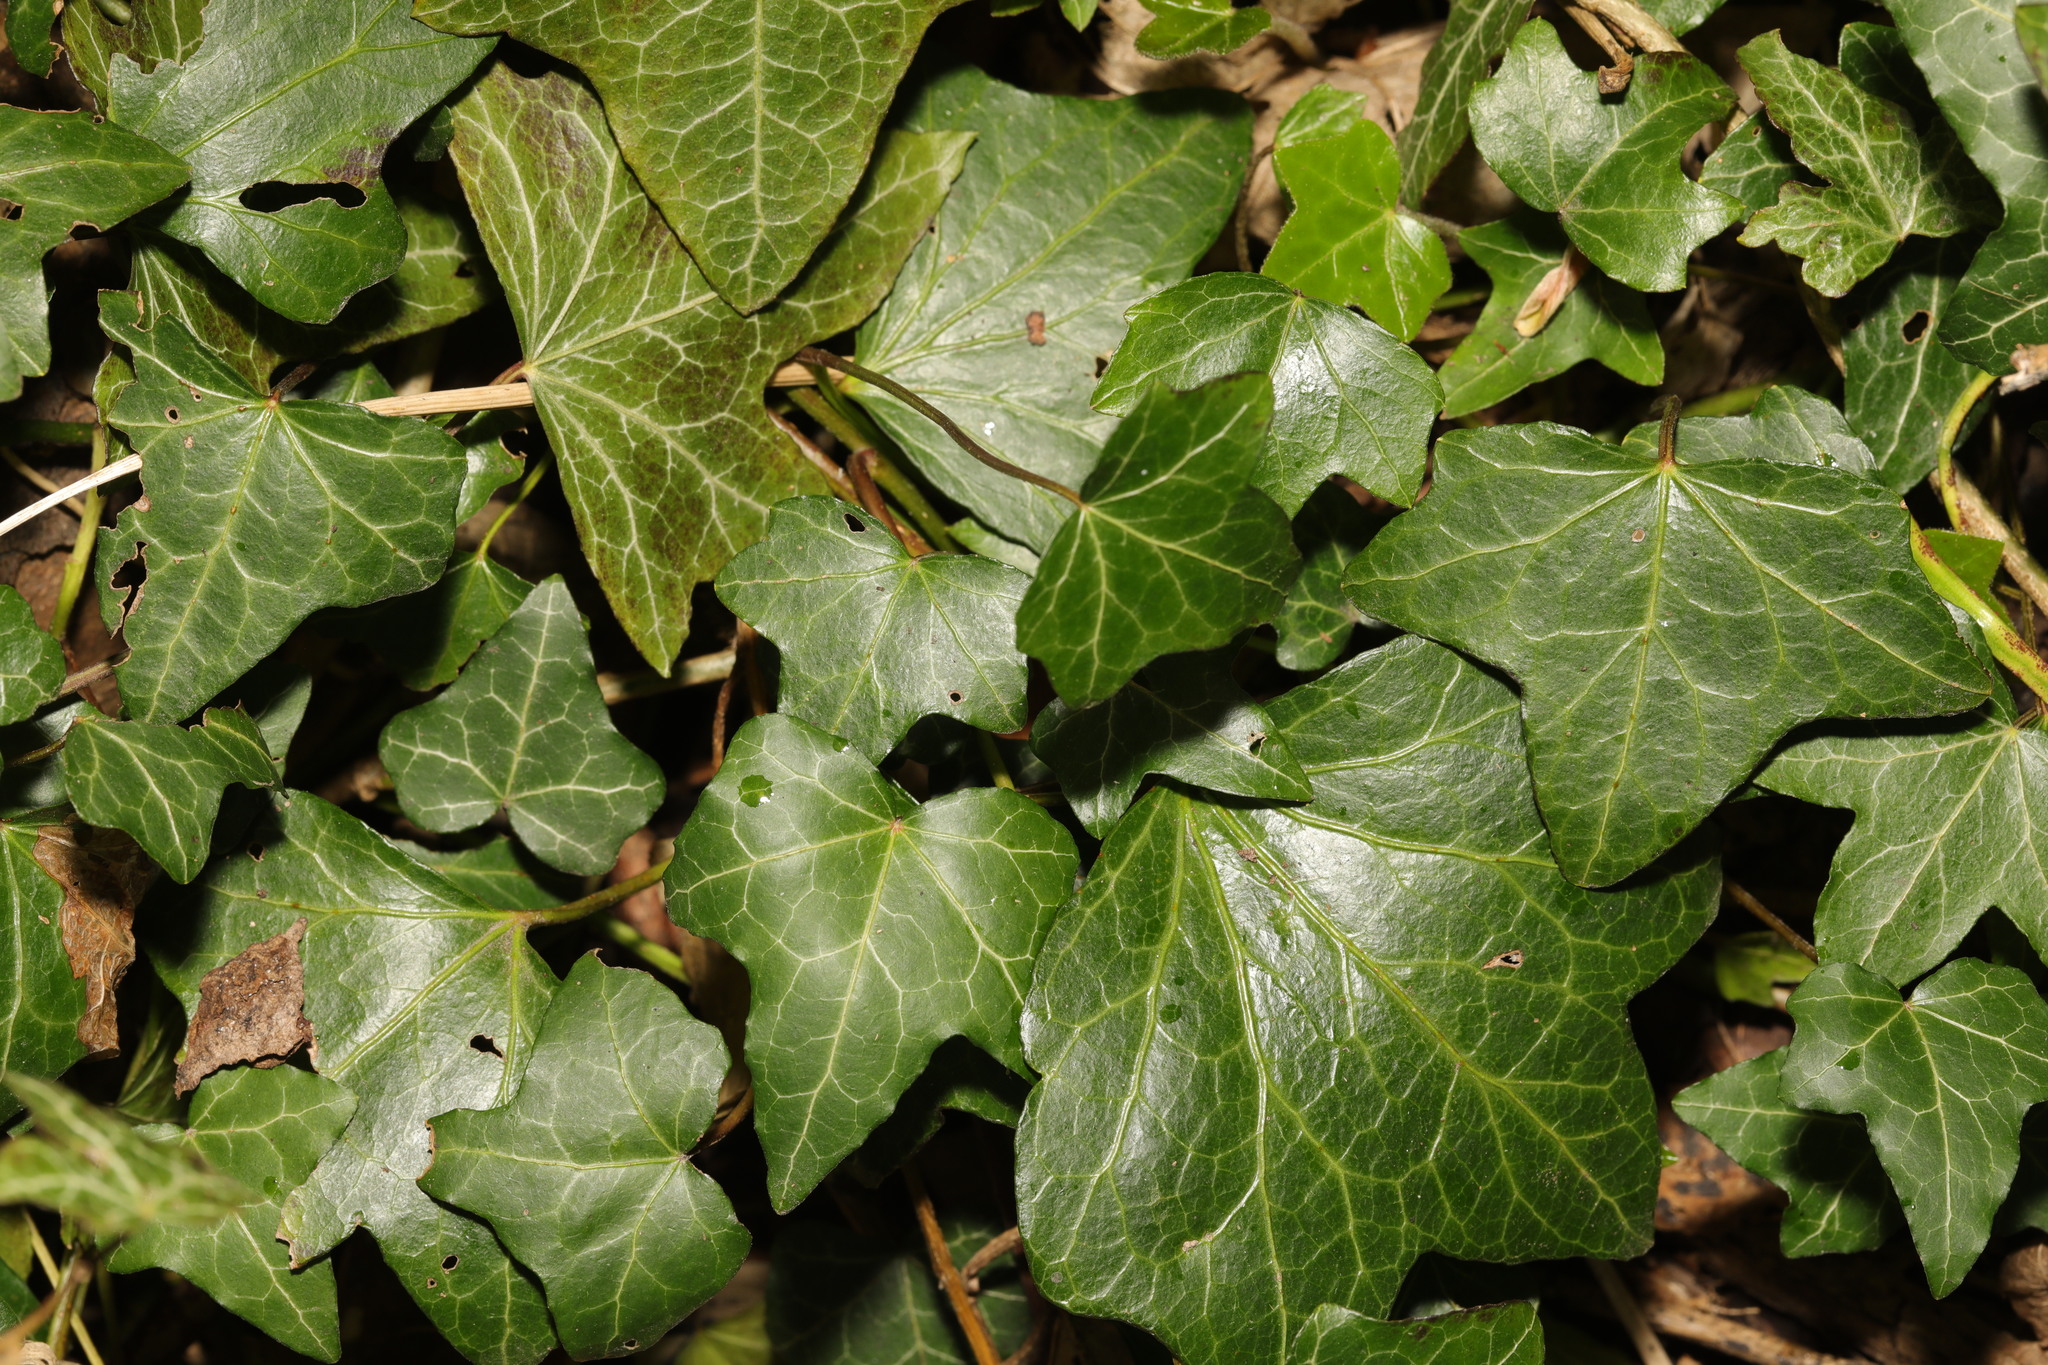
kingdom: Plantae
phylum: Tracheophyta
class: Magnoliopsida
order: Apiales
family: Araliaceae
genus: Hedera
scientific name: Hedera helix
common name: Ivy
